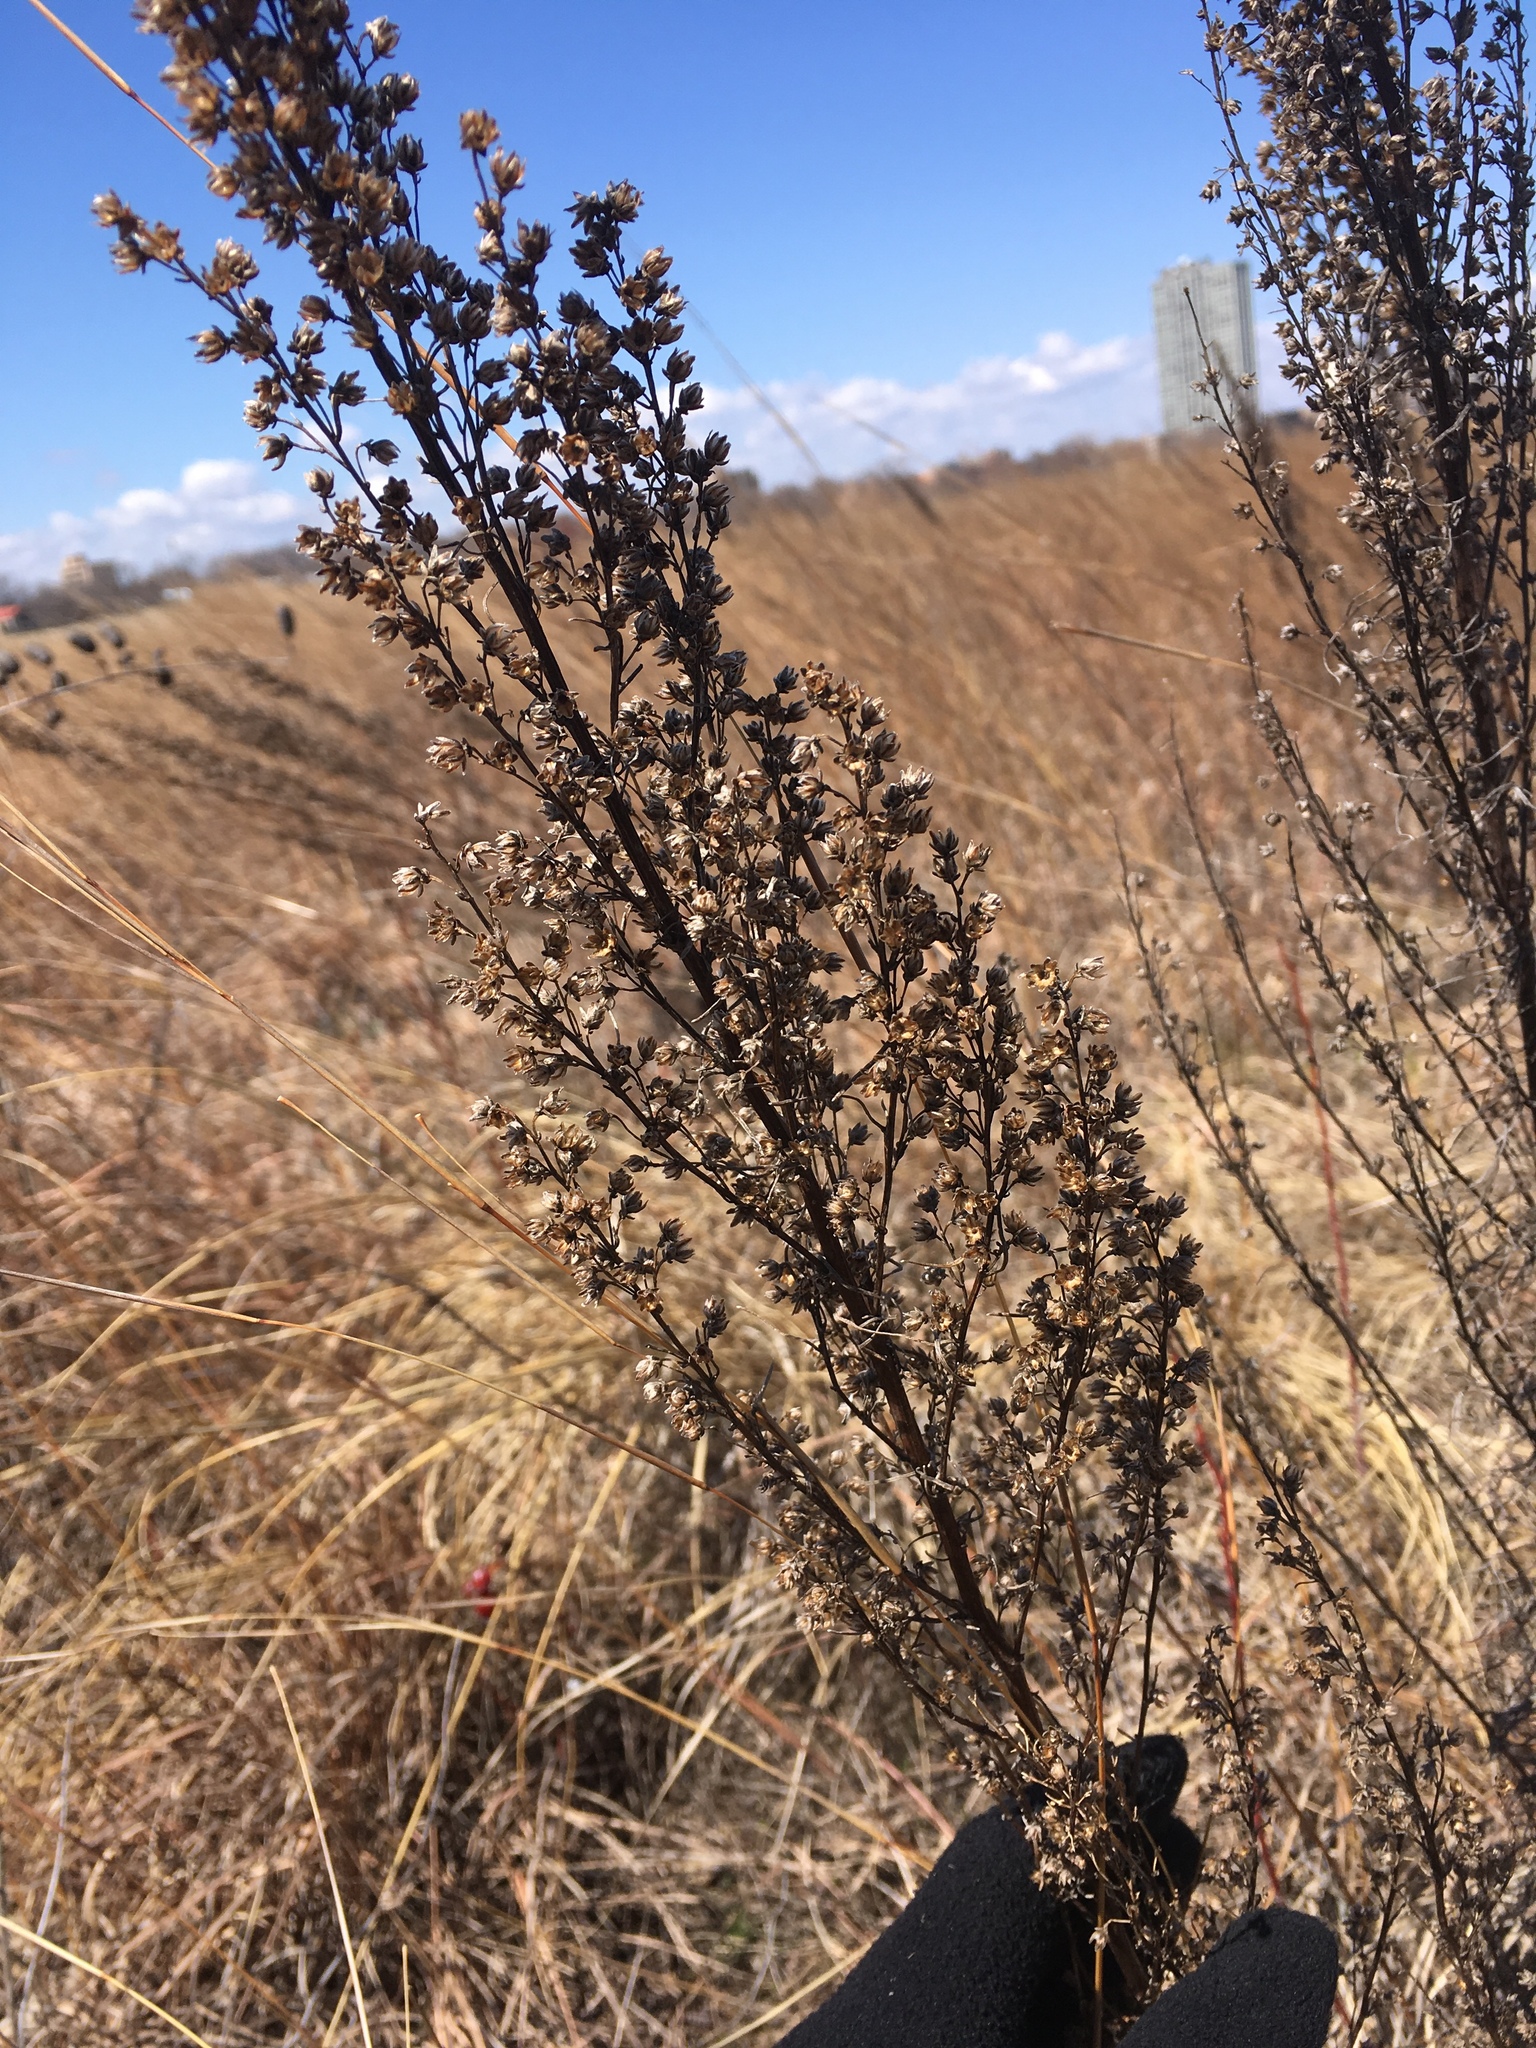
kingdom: Plantae
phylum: Tracheophyta
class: Magnoliopsida
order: Asterales
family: Asteraceae
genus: Artemisia
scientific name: Artemisia campestris
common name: Field wormwood
